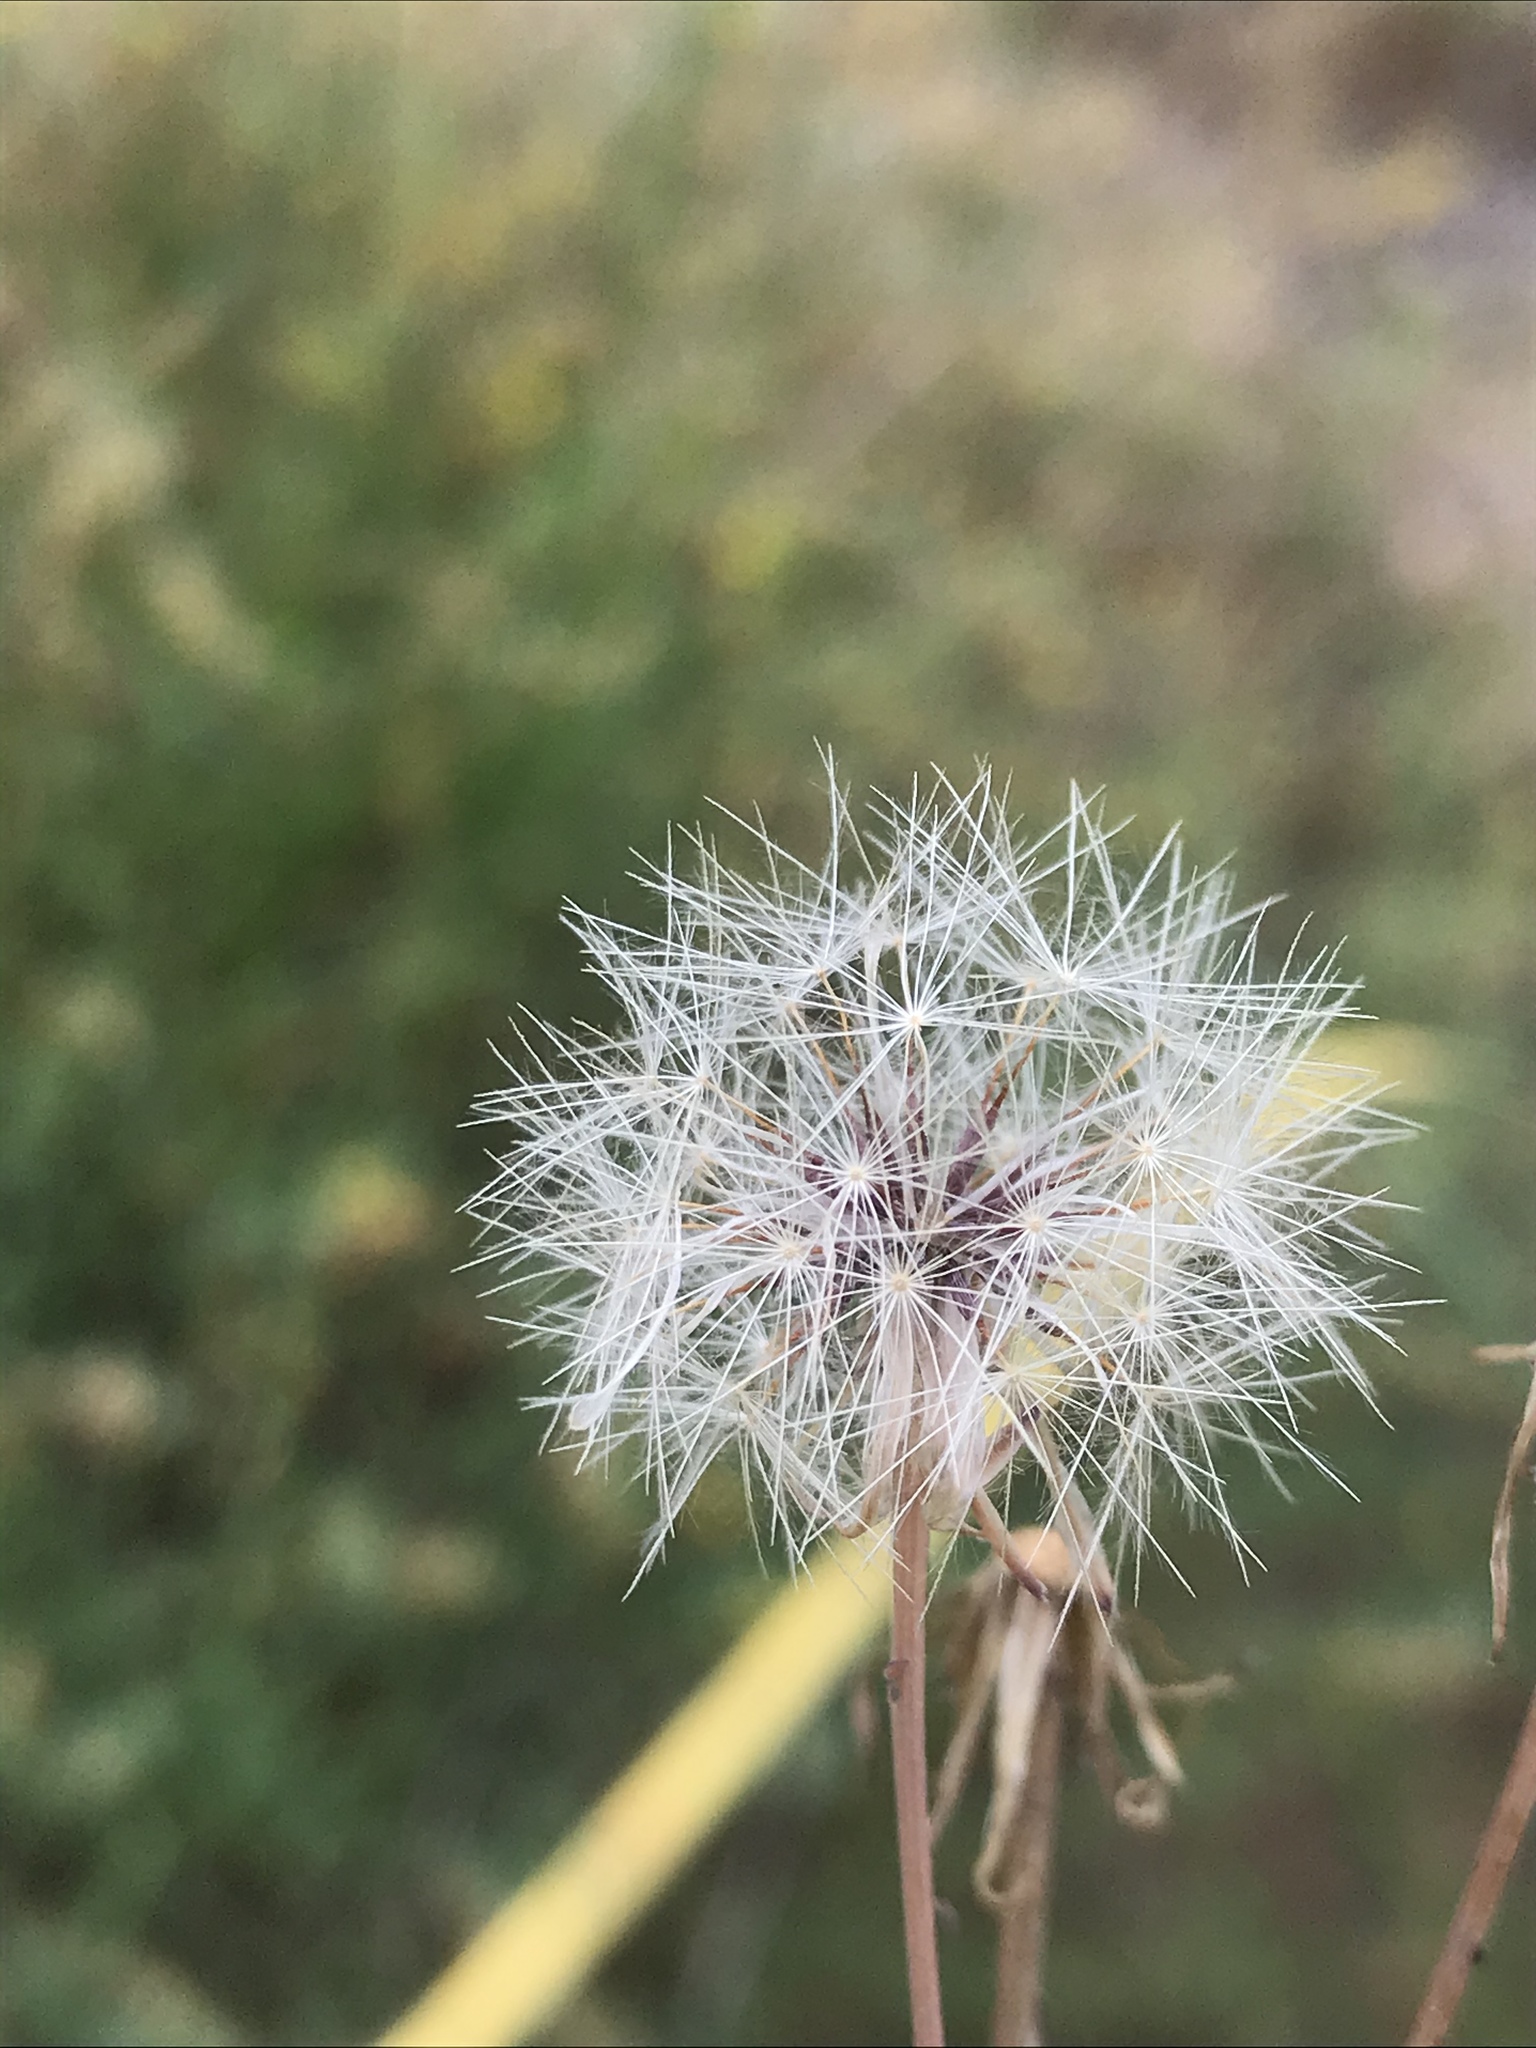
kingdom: Plantae
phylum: Tracheophyta
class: Magnoliopsida
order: Asterales
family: Asteraceae
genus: Hypochaeris
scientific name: Hypochaeris glabra
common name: Smooth catsear
